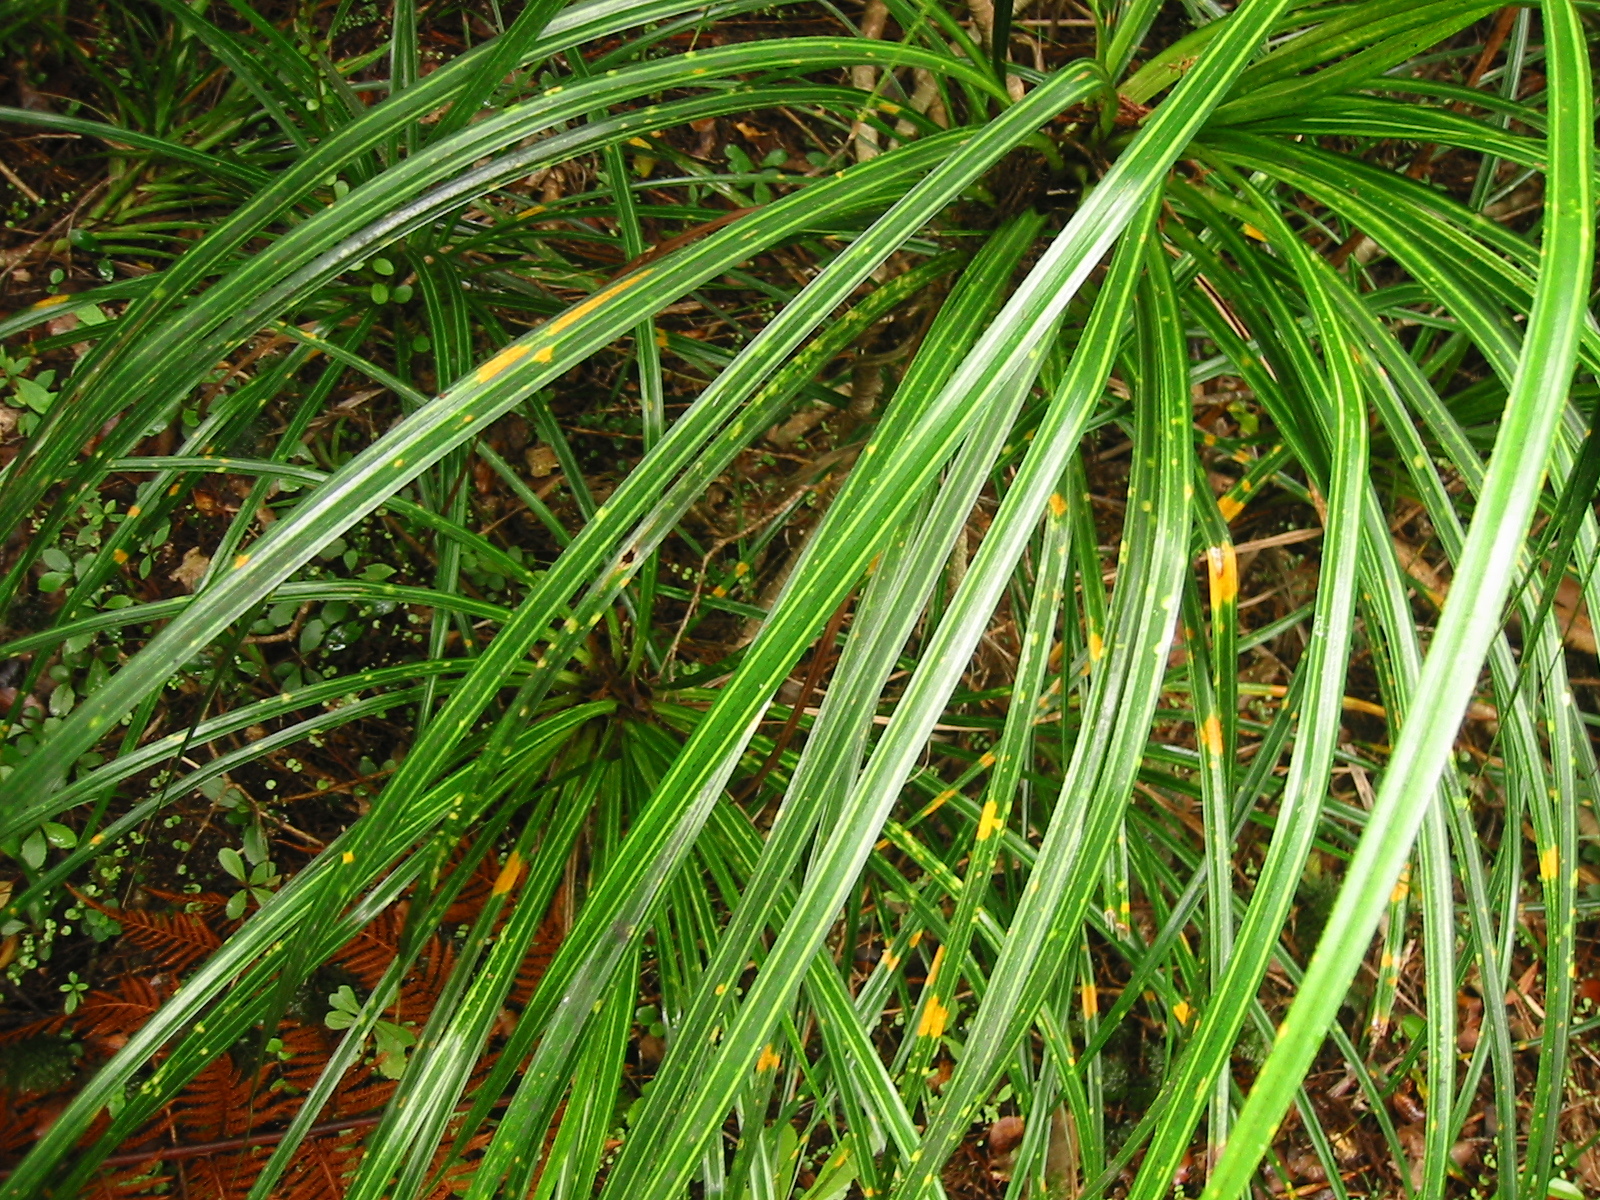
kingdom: Plantae
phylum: Tracheophyta
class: Liliopsida
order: Pandanales
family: Pandanaceae
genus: Freycinetia
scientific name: Freycinetia banksii
